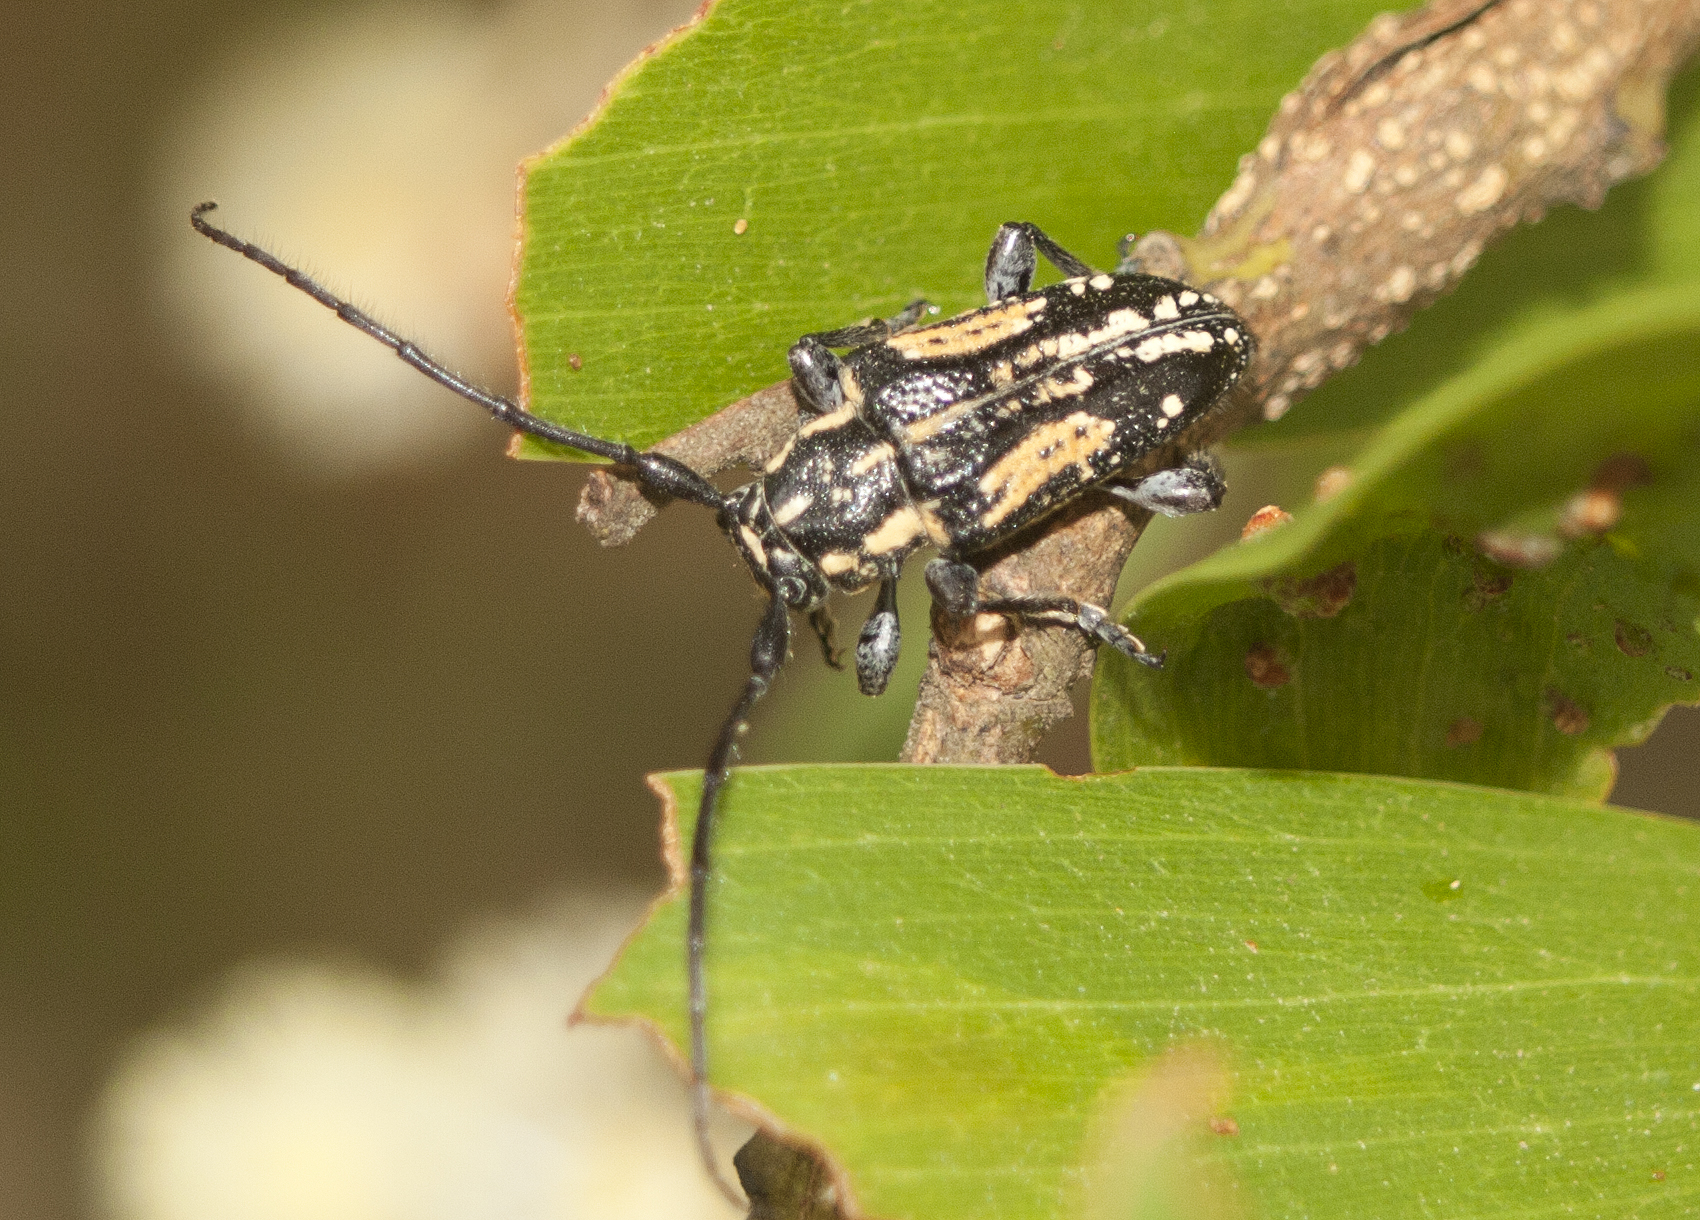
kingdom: Animalia
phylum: Arthropoda
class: Insecta
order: Coleoptera
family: Cerambycidae
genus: Hebecerus
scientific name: Hebecerus crocogaster
